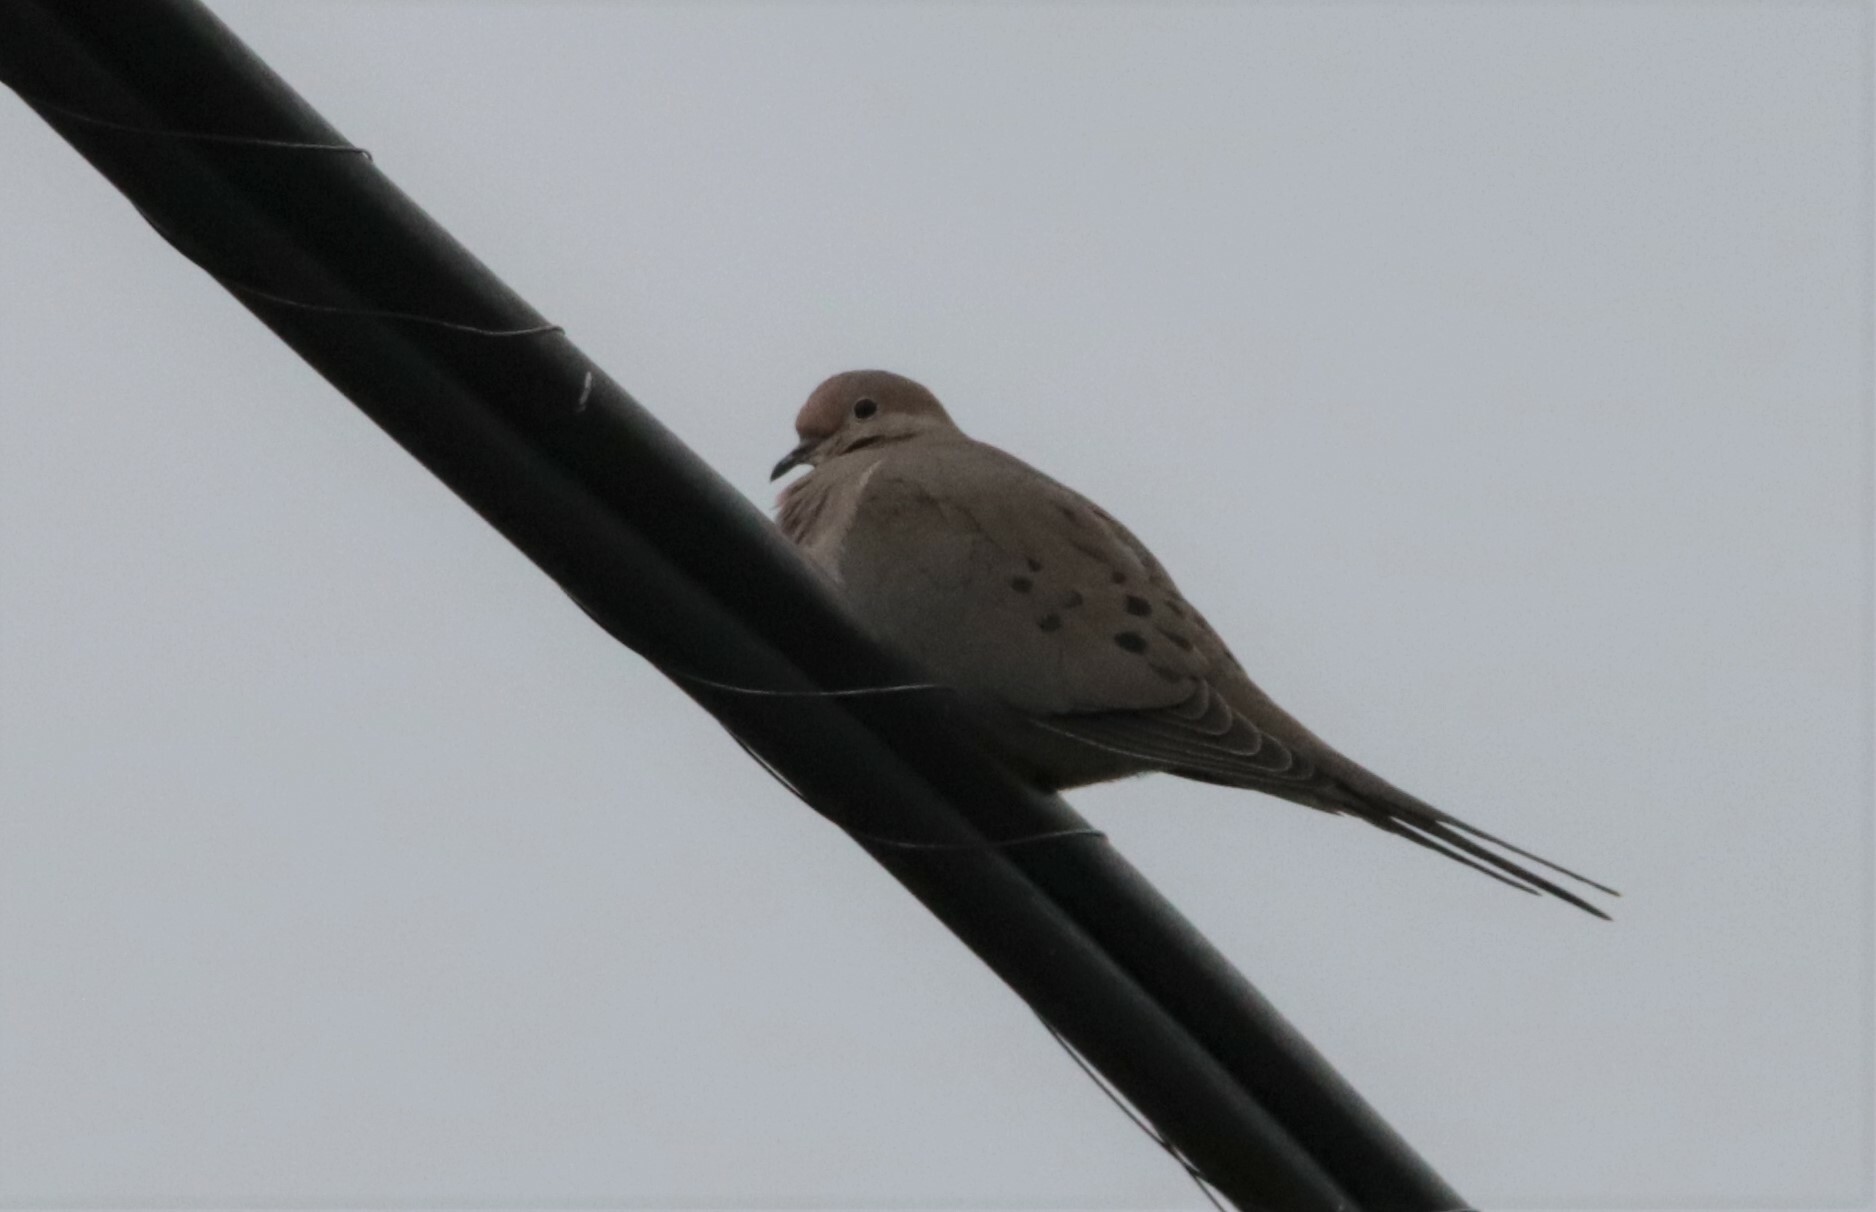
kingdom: Animalia
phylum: Chordata
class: Aves
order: Columbiformes
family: Columbidae
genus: Zenaida
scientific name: Zenaida macroura
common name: Mourning dove
